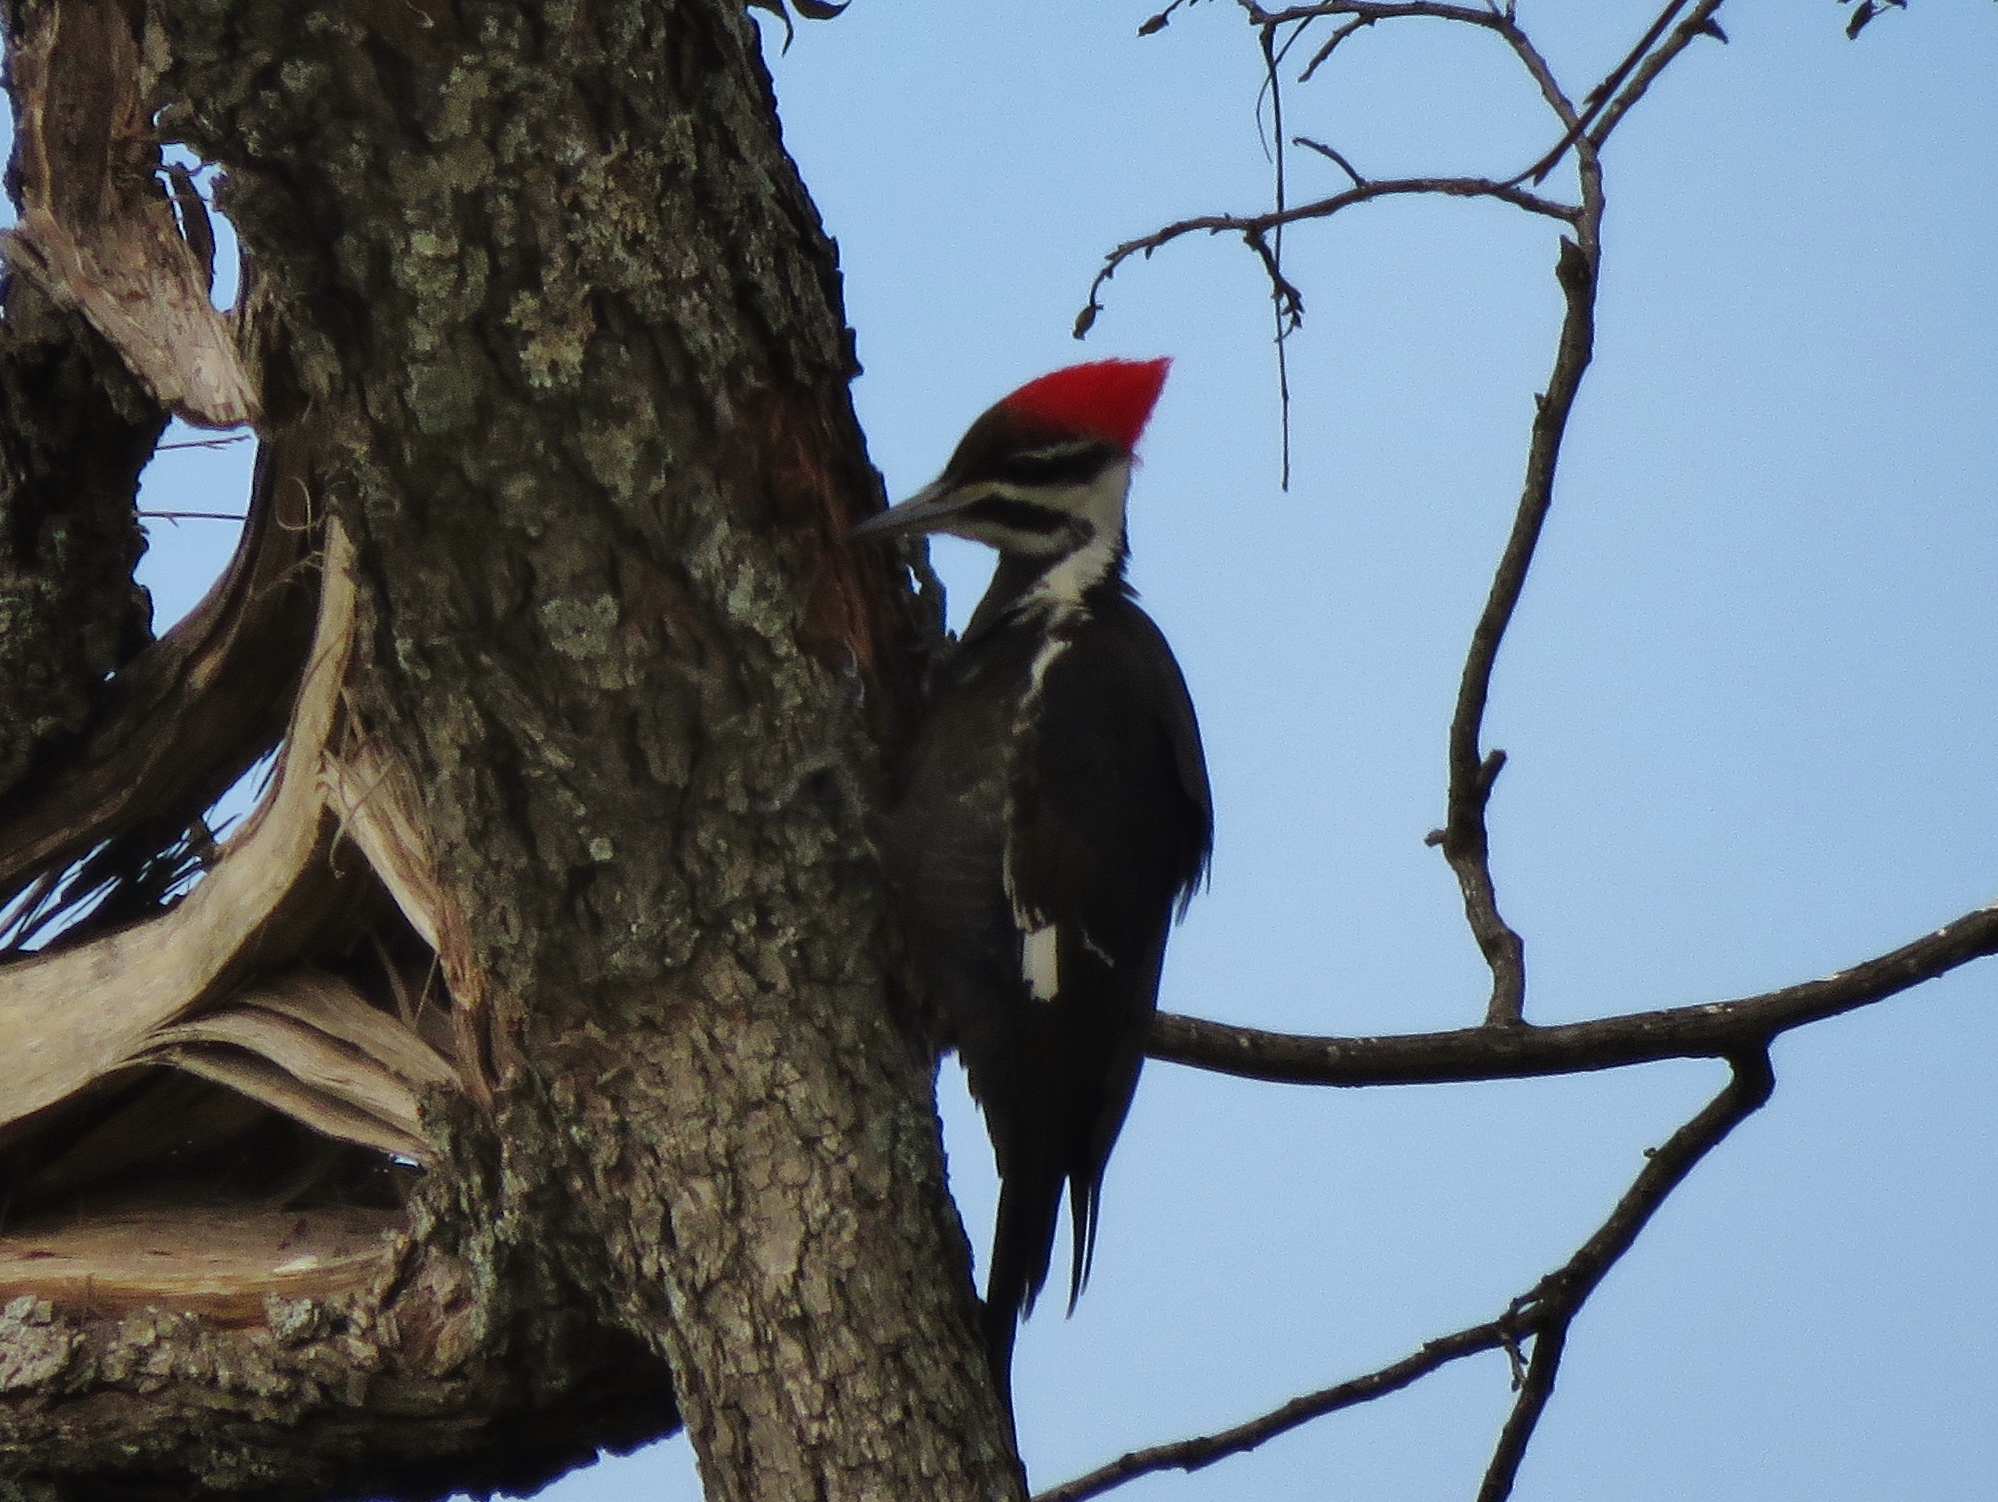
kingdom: Animalia
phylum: Chordata
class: Aves
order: Piciformes
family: Picidae
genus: Dryocopus
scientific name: Dryocopus pileatus
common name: Pileated woodpecker
